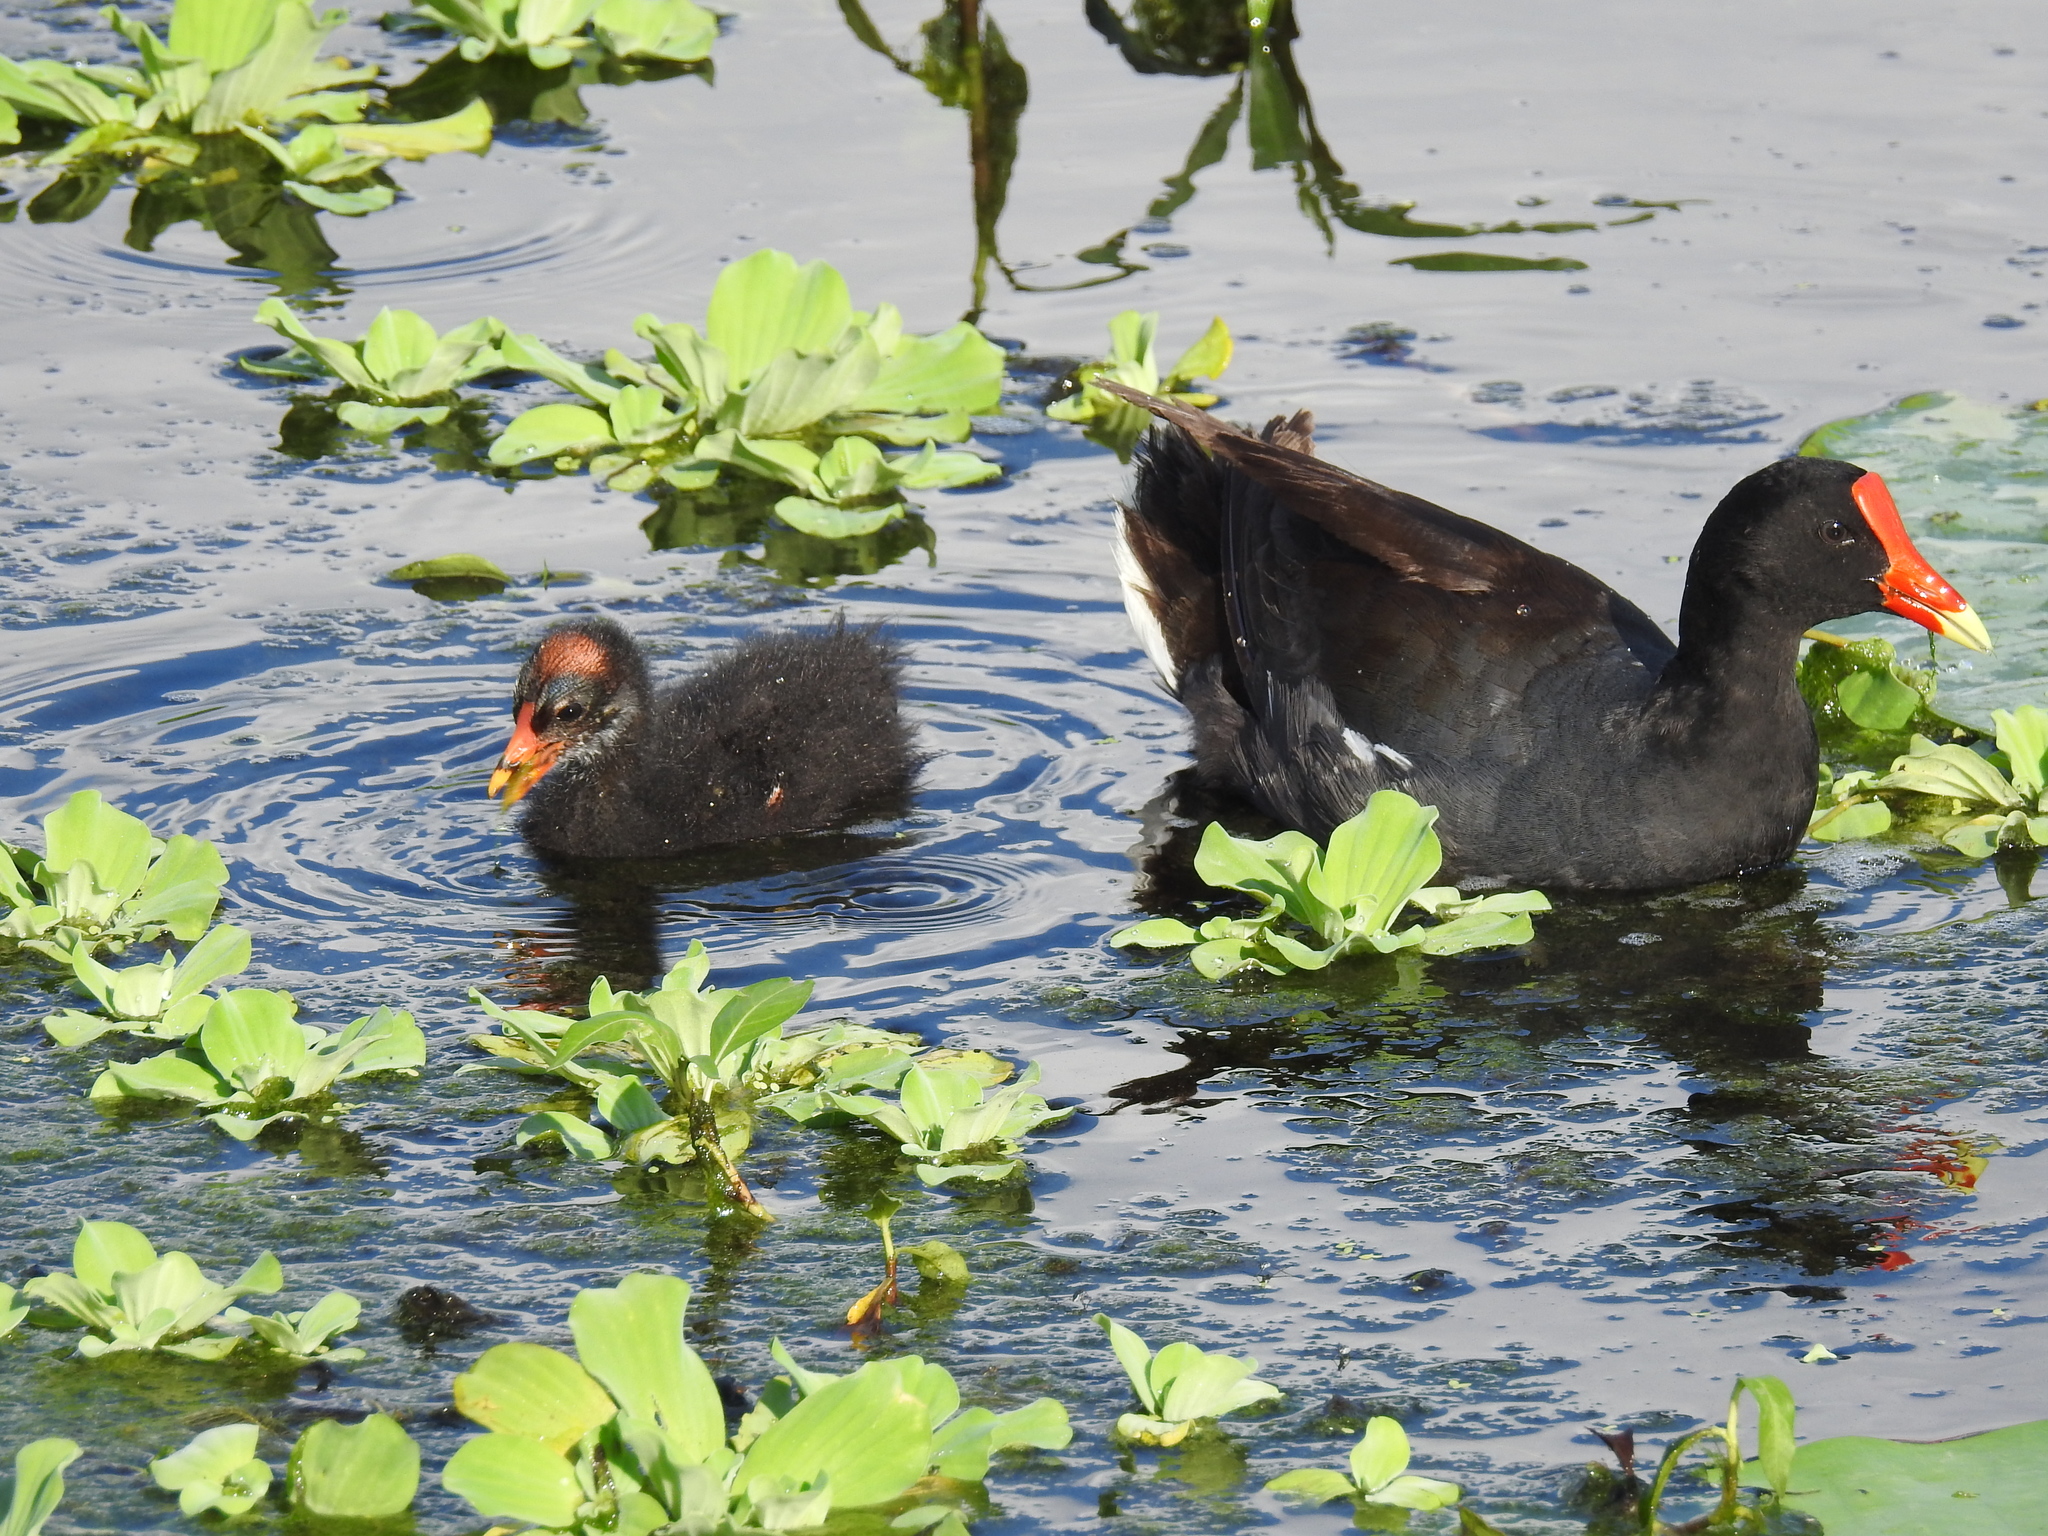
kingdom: Animalia
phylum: Chordata
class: Aves
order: Gruiformes
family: Rallidae
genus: Gallinula
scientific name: Gallinula chloropus
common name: Common moorhen
